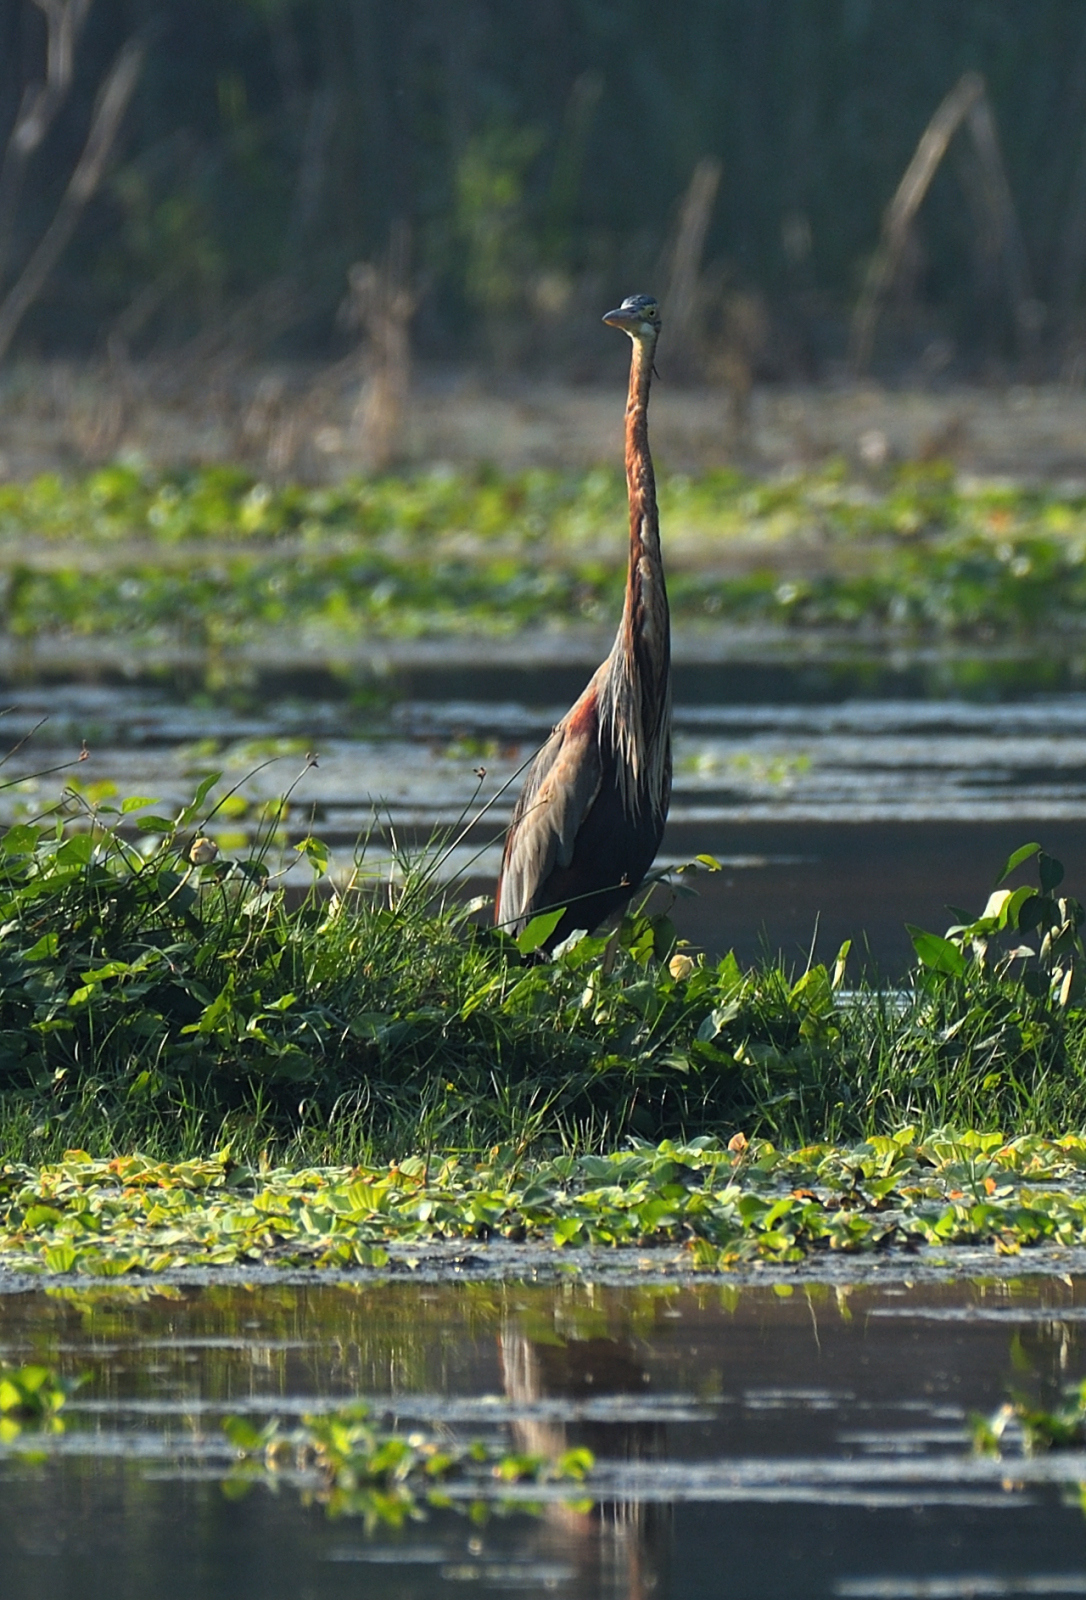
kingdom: Animalia
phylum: Chordata
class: Aves
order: Pelecaniformes
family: Ardeidae
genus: Ardea
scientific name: Ardea purpurea
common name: Purple heron
